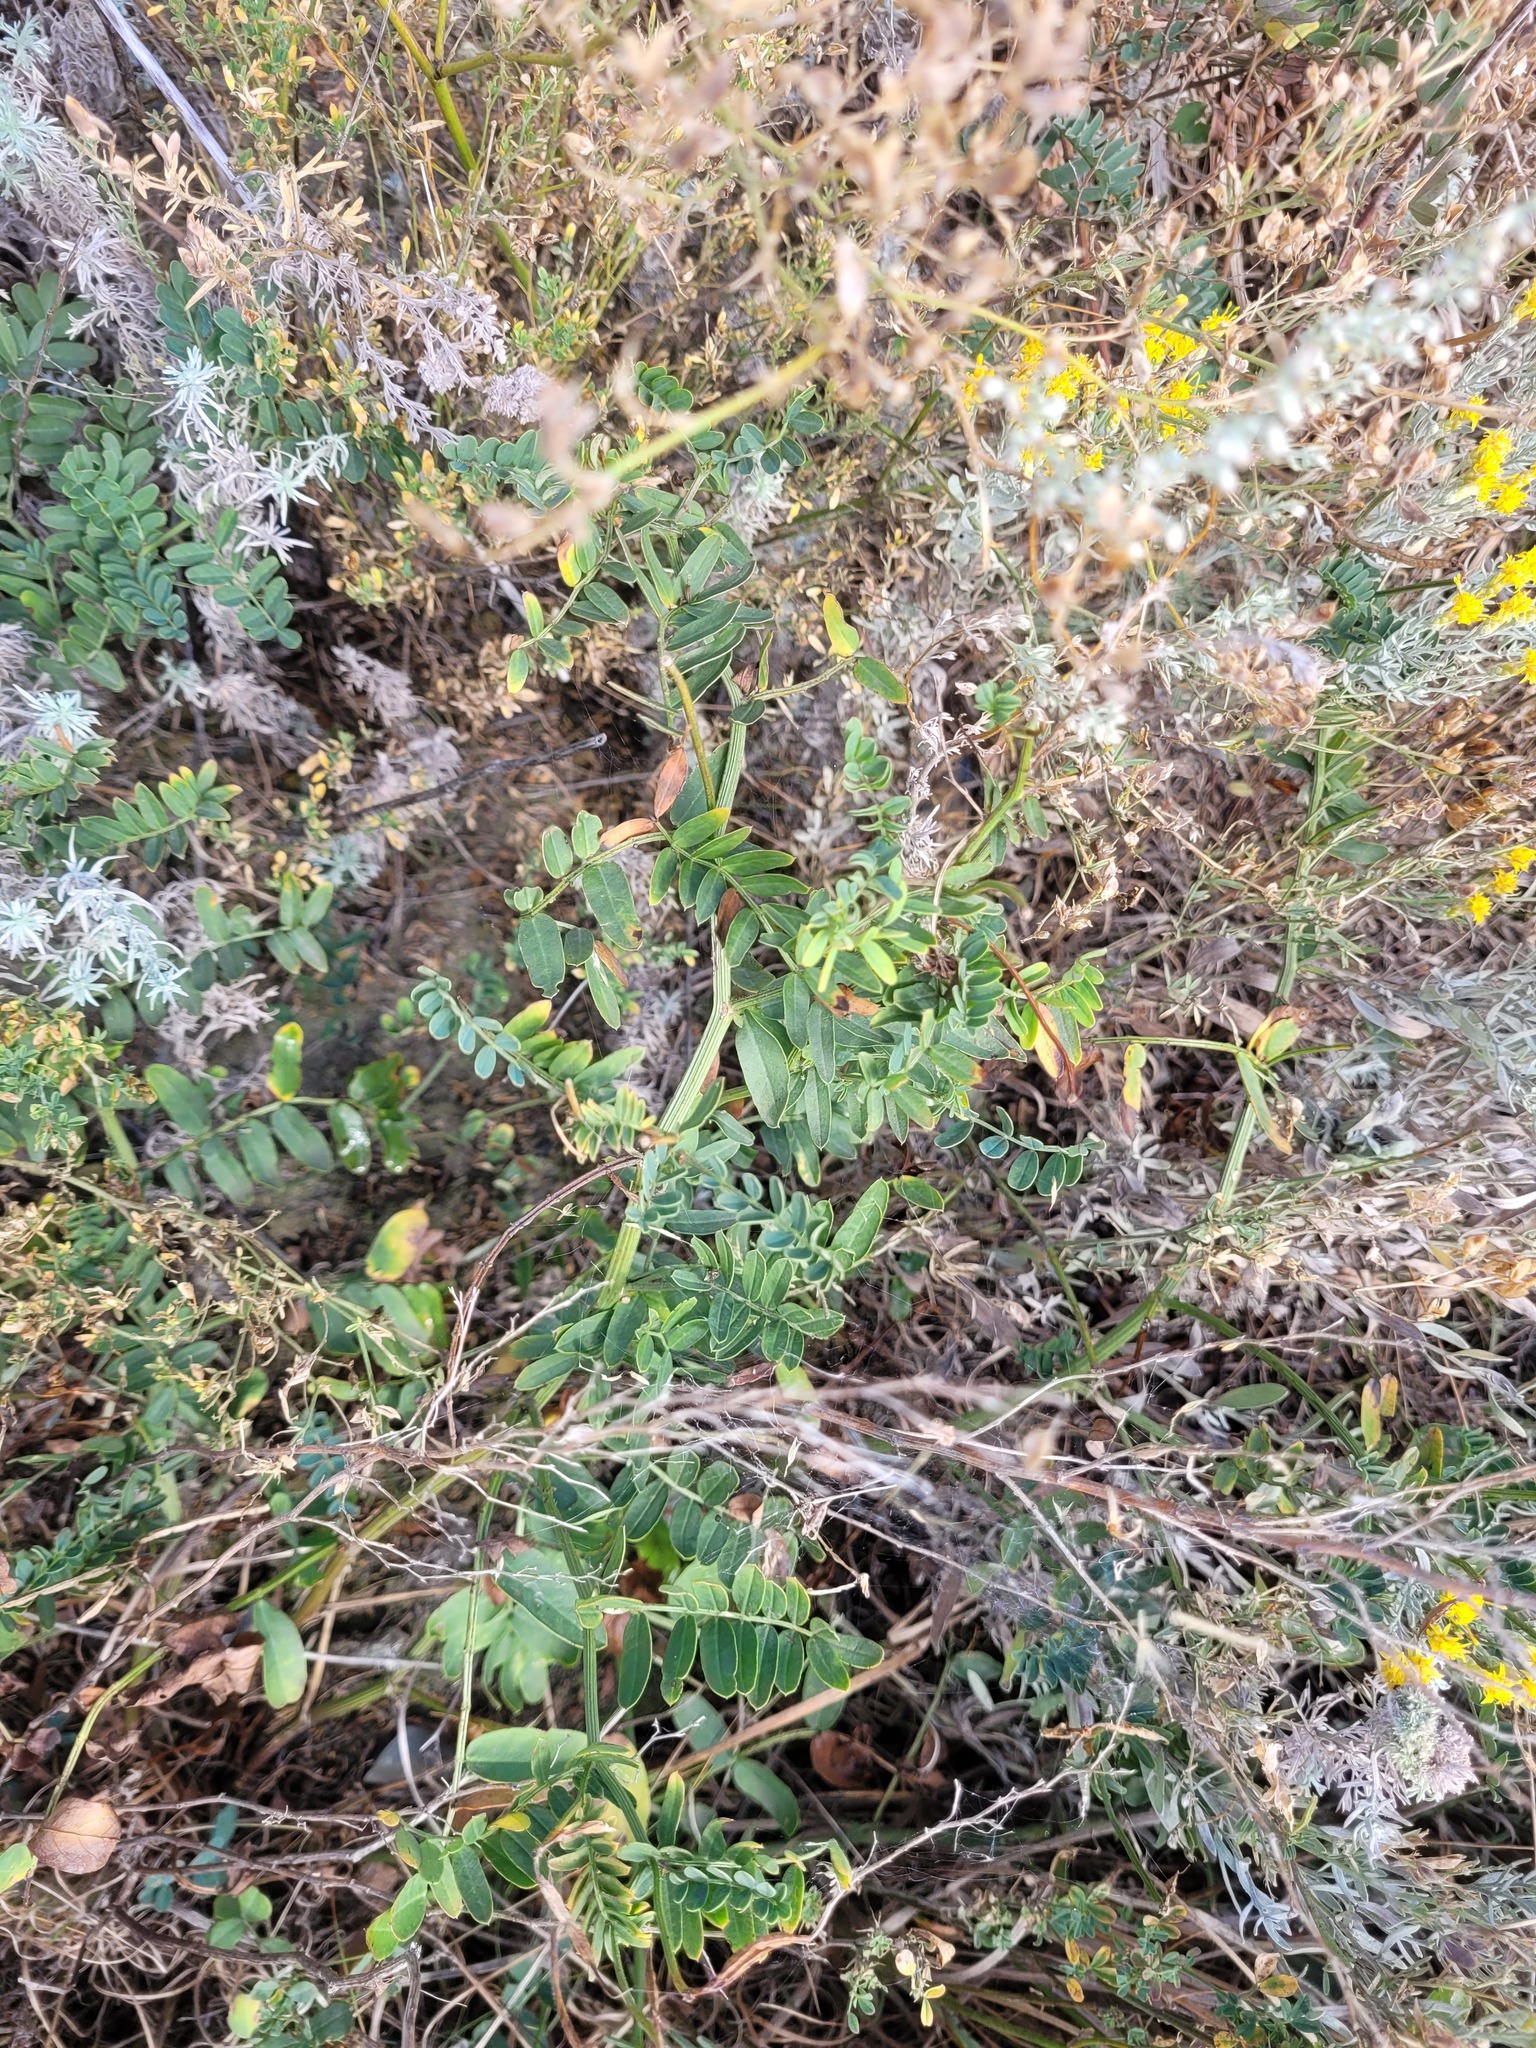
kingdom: Plantae
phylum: Tracheophyta
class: Magnoliopsida
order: Fabales
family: Fabaceae
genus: Coronilla
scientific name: Coronilla varia
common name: Crownvetch
